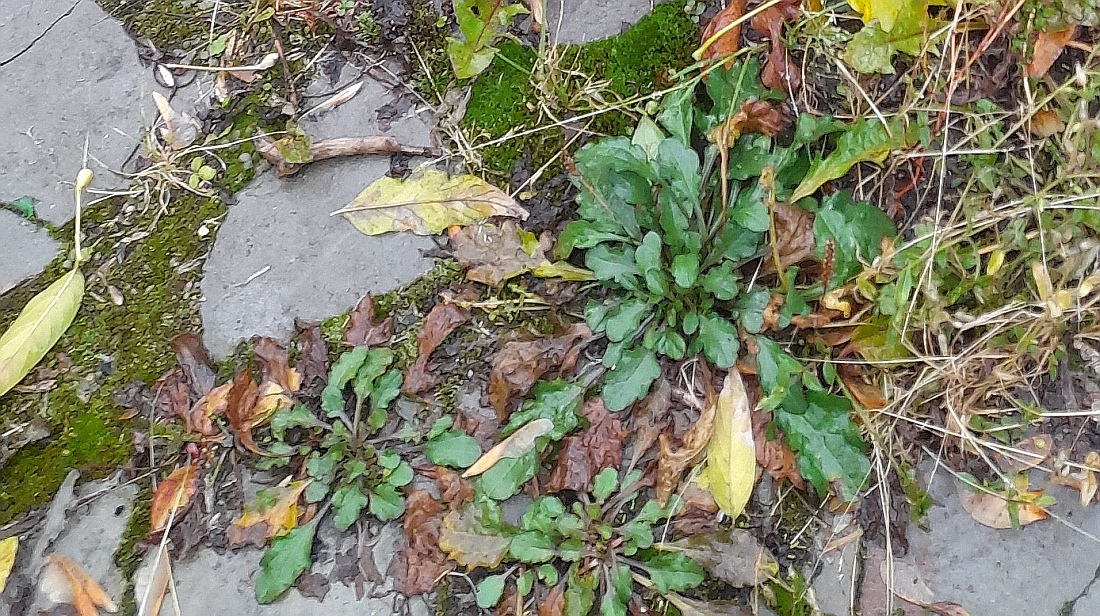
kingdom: Plantae
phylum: Tracheophyta
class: Magnoliopsida
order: Asterales
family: Asteraceae
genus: Leucanthemum
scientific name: Leucanthemum vulgare
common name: Oxeye daisy
